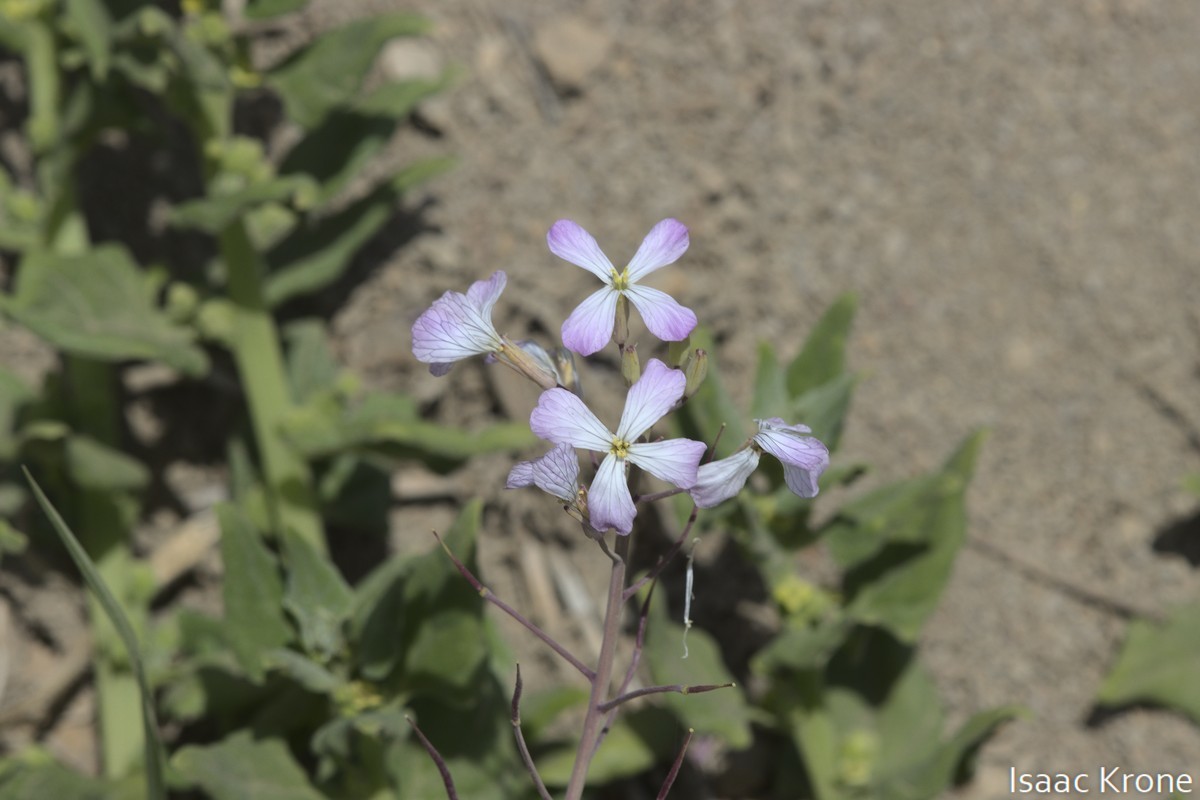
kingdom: Plantae
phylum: Tracheophyta
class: Magnoliopsida
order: Brassicales
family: Brassicaceae
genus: Raphanus
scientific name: Raphanus sativus
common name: Cultivated radish
